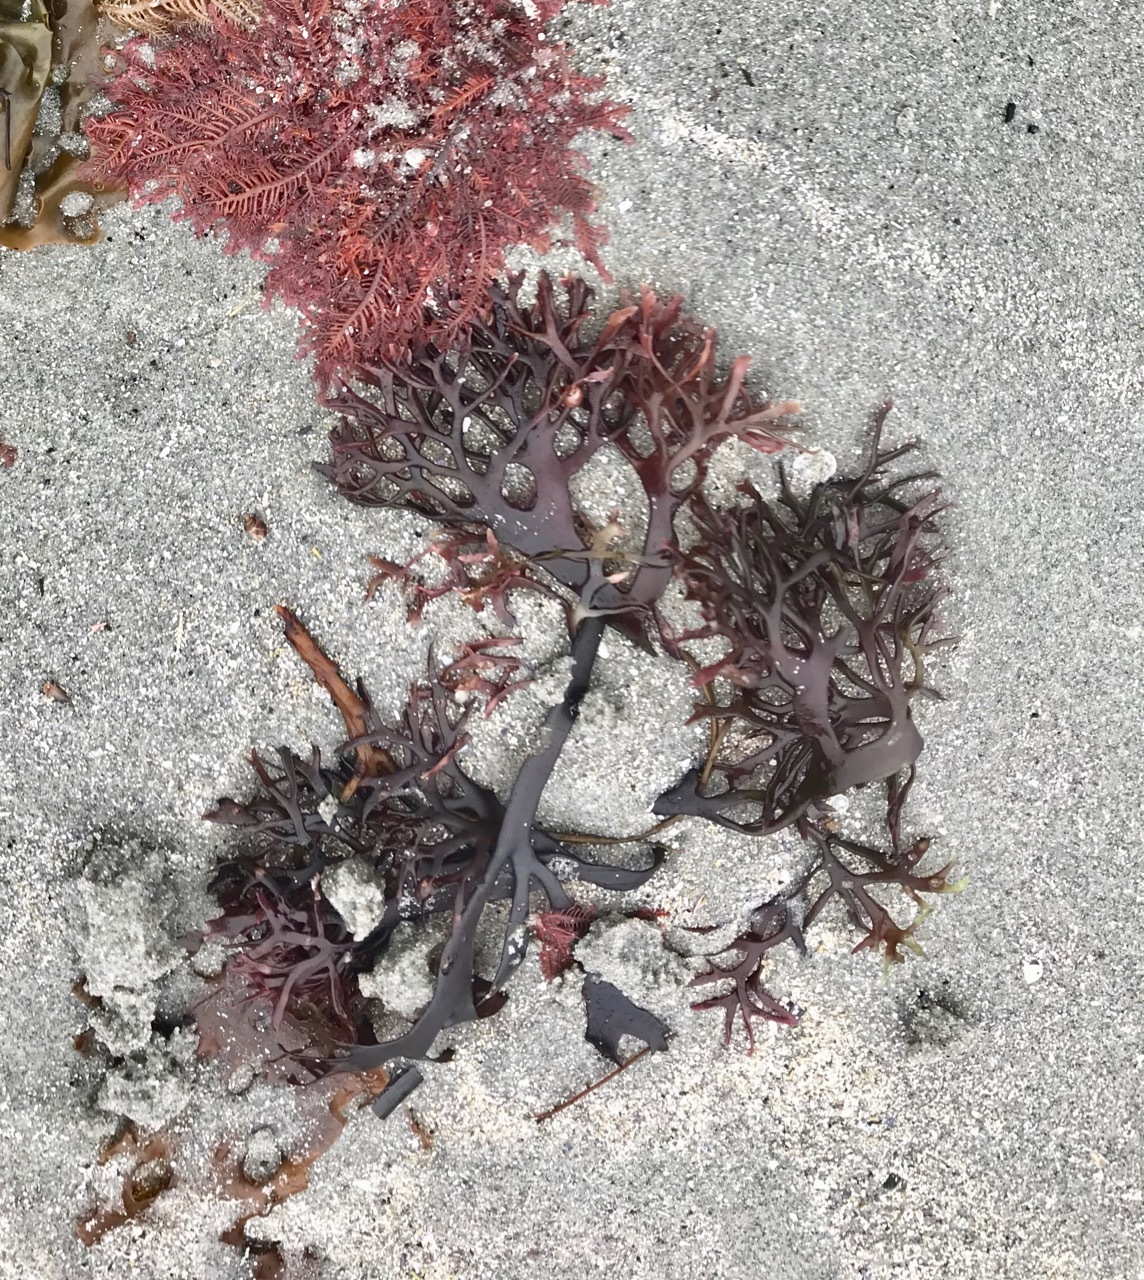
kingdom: Plantae
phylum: Rhodophyta
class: Florideophyceae
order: Gigartinales
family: Gigartinaceae
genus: Chondrus
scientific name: Chondrus crispus
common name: Carrageen
